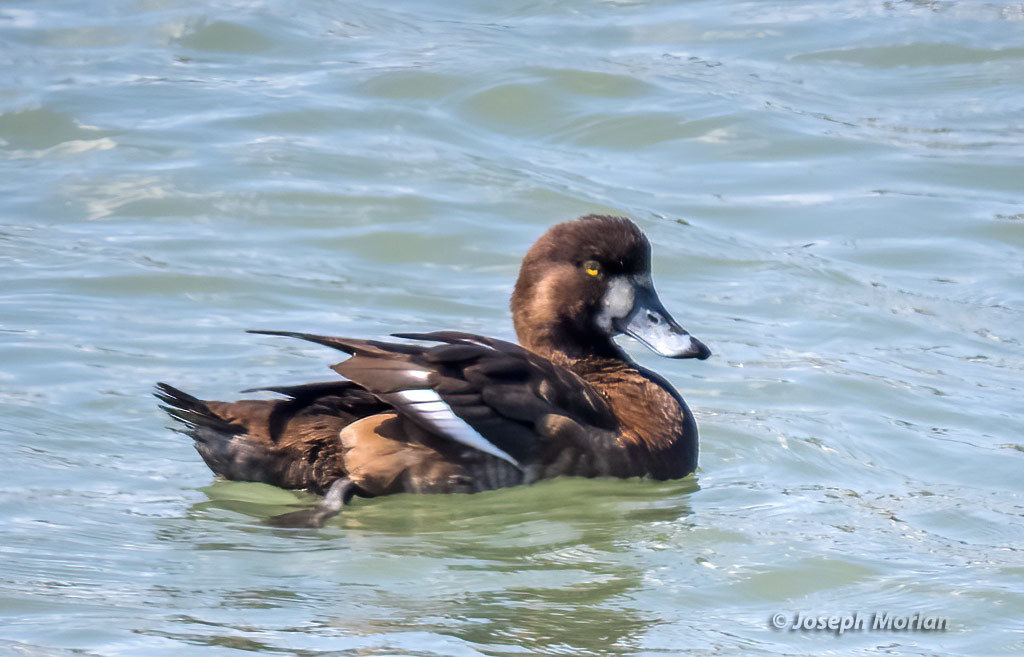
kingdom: Animalia
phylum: Chordata
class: Aves
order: Anseriformes
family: Anatidae
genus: Aythya
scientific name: Aythya marila
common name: Greater scaup
